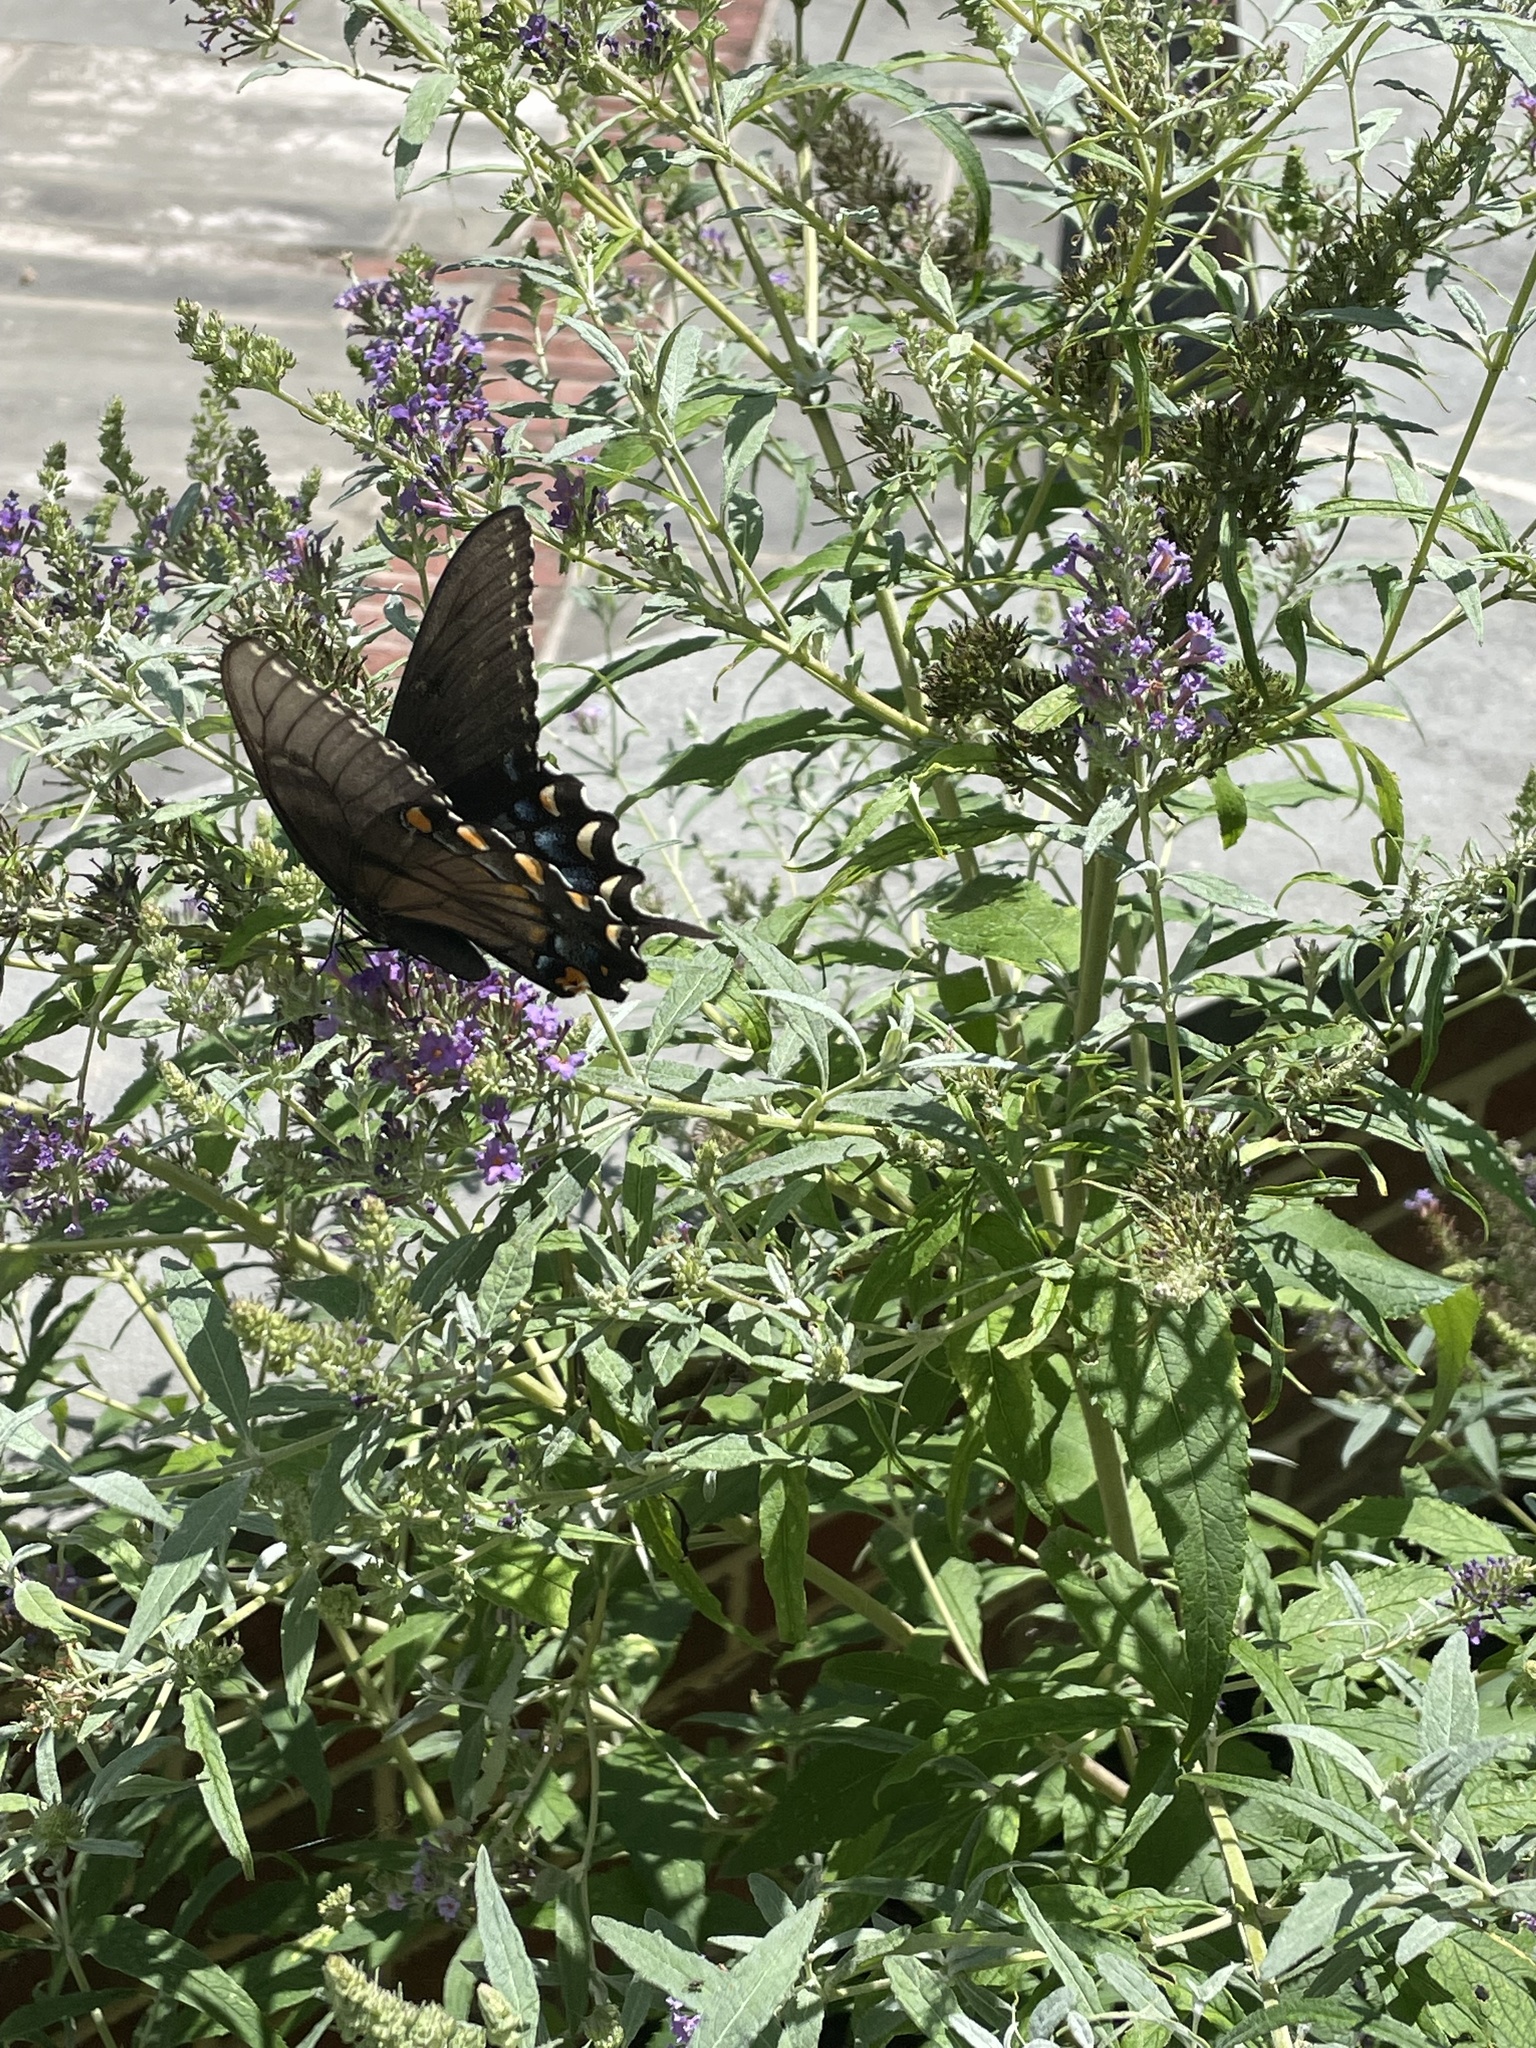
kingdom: Animalia
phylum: Arthropoda
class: Insecta
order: Lepidoptera
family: Papilionidae
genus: Papilio
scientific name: Papilio glaucus
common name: Tiger swallowtail
